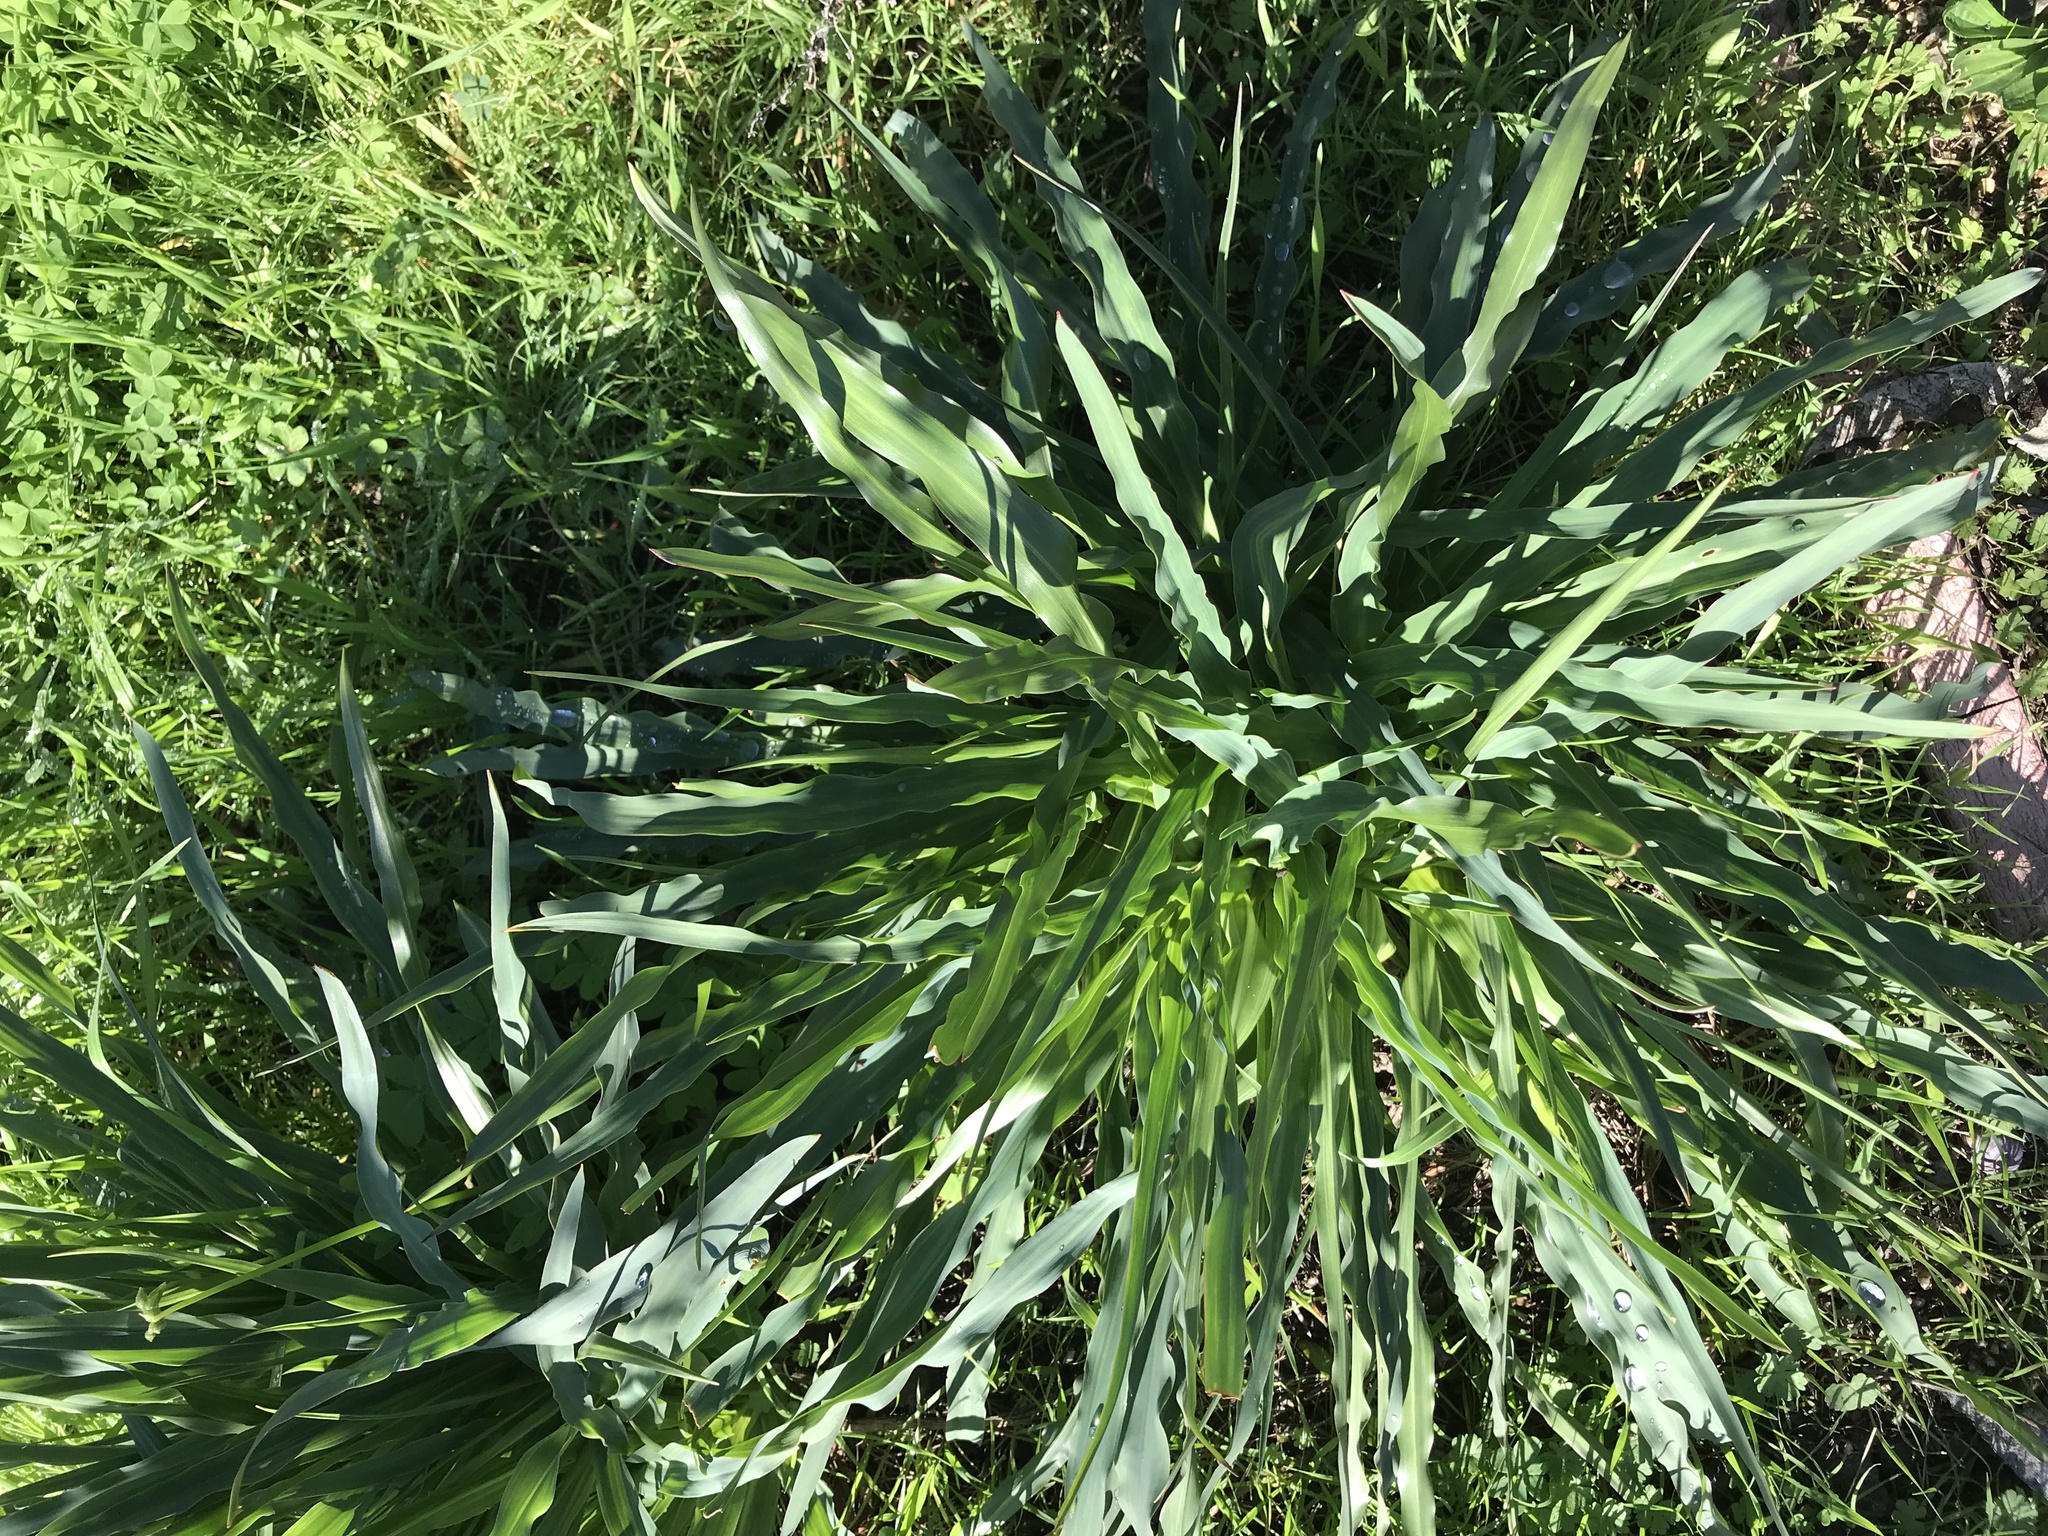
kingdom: Plantae
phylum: Tracheophyta
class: Liliopsida
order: Asparagales
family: Asparagaceae
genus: Chlorogalum
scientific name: Chlorogalum pomeridianum
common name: Amole
